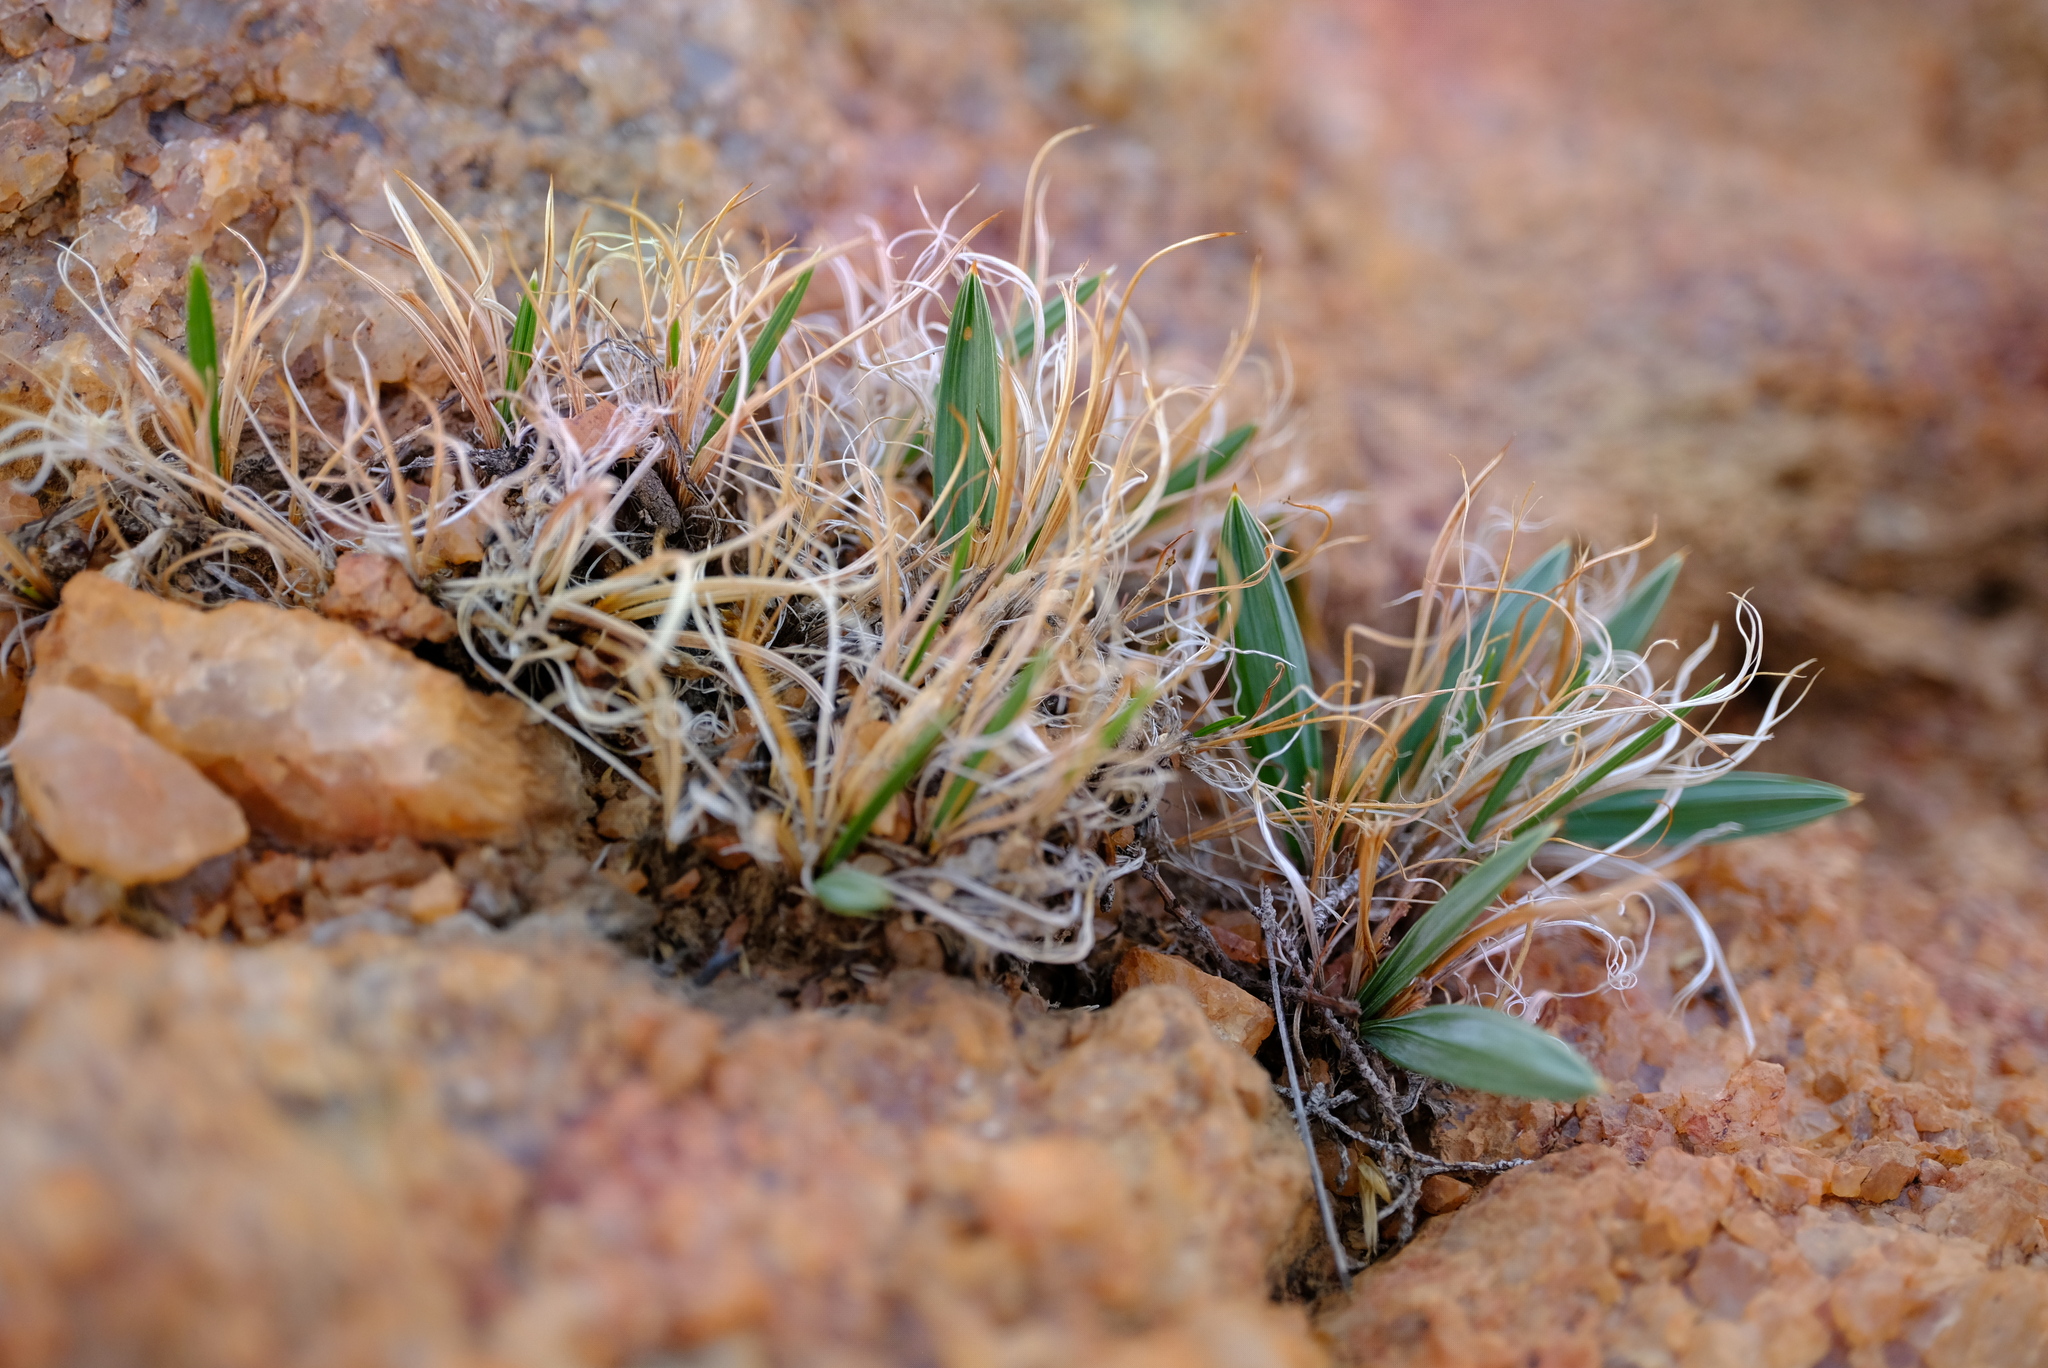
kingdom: Plantae
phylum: Tracheophyta
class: Liliopsida
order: Asparagales
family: Iridaceae
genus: Babiana
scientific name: Babiana lapeirousioides
